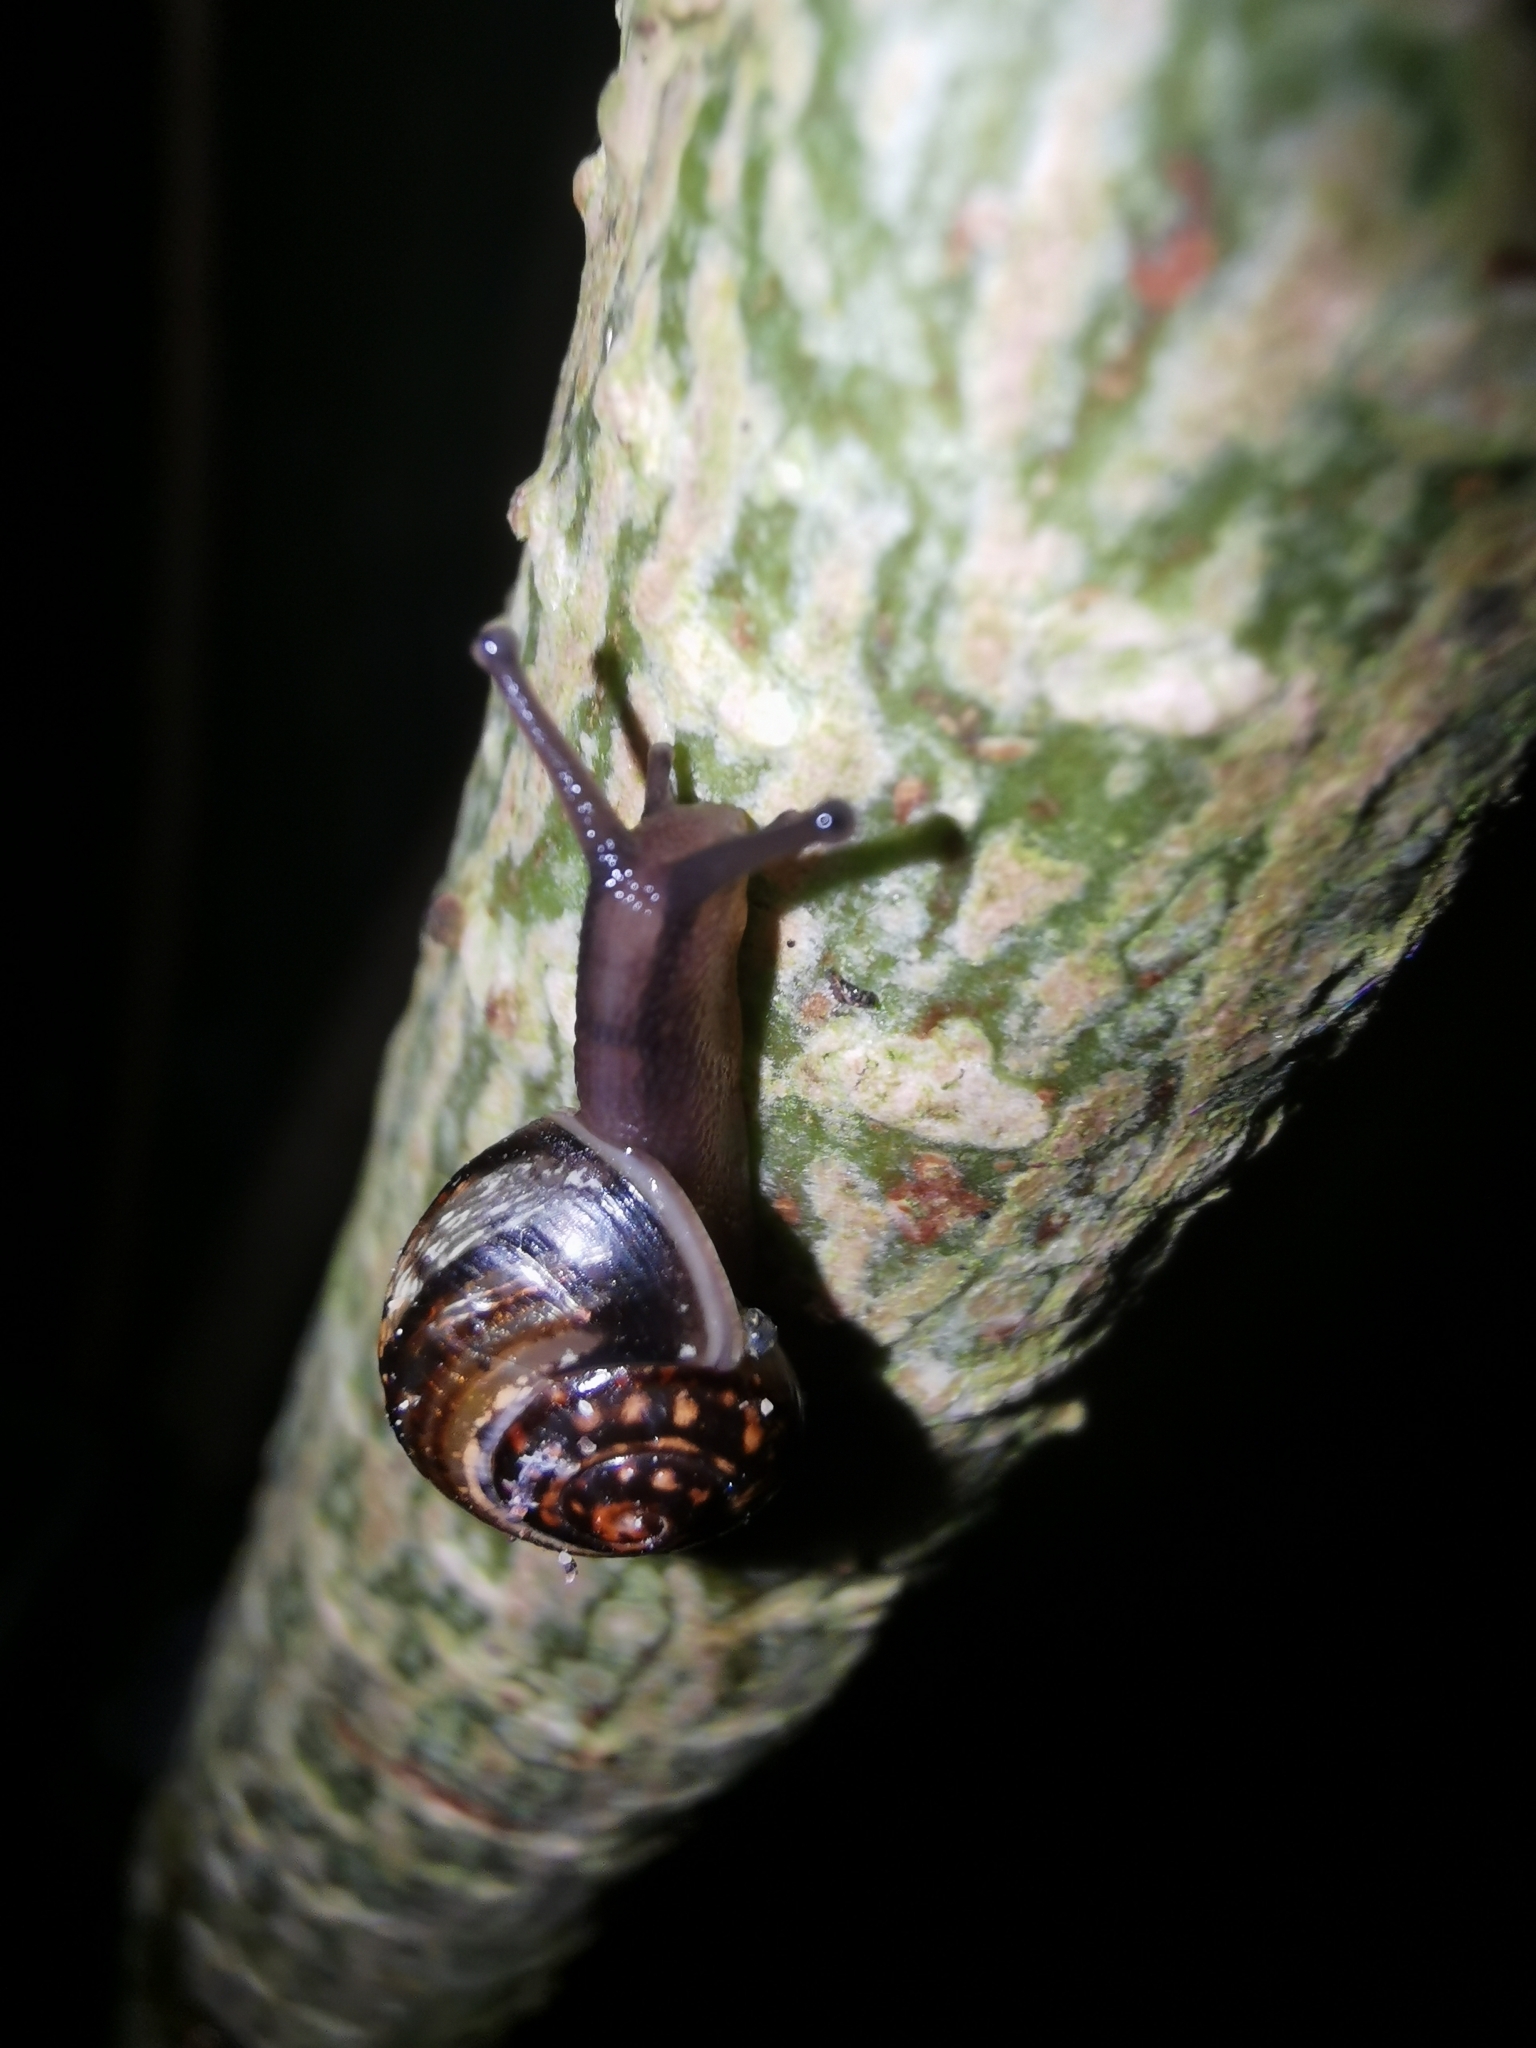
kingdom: Animalia
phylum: Mollusca
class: Gastropoda
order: Stylommatophora
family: Helicidae
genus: Arianta
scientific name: Arianta arbustorum
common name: Copse snail
